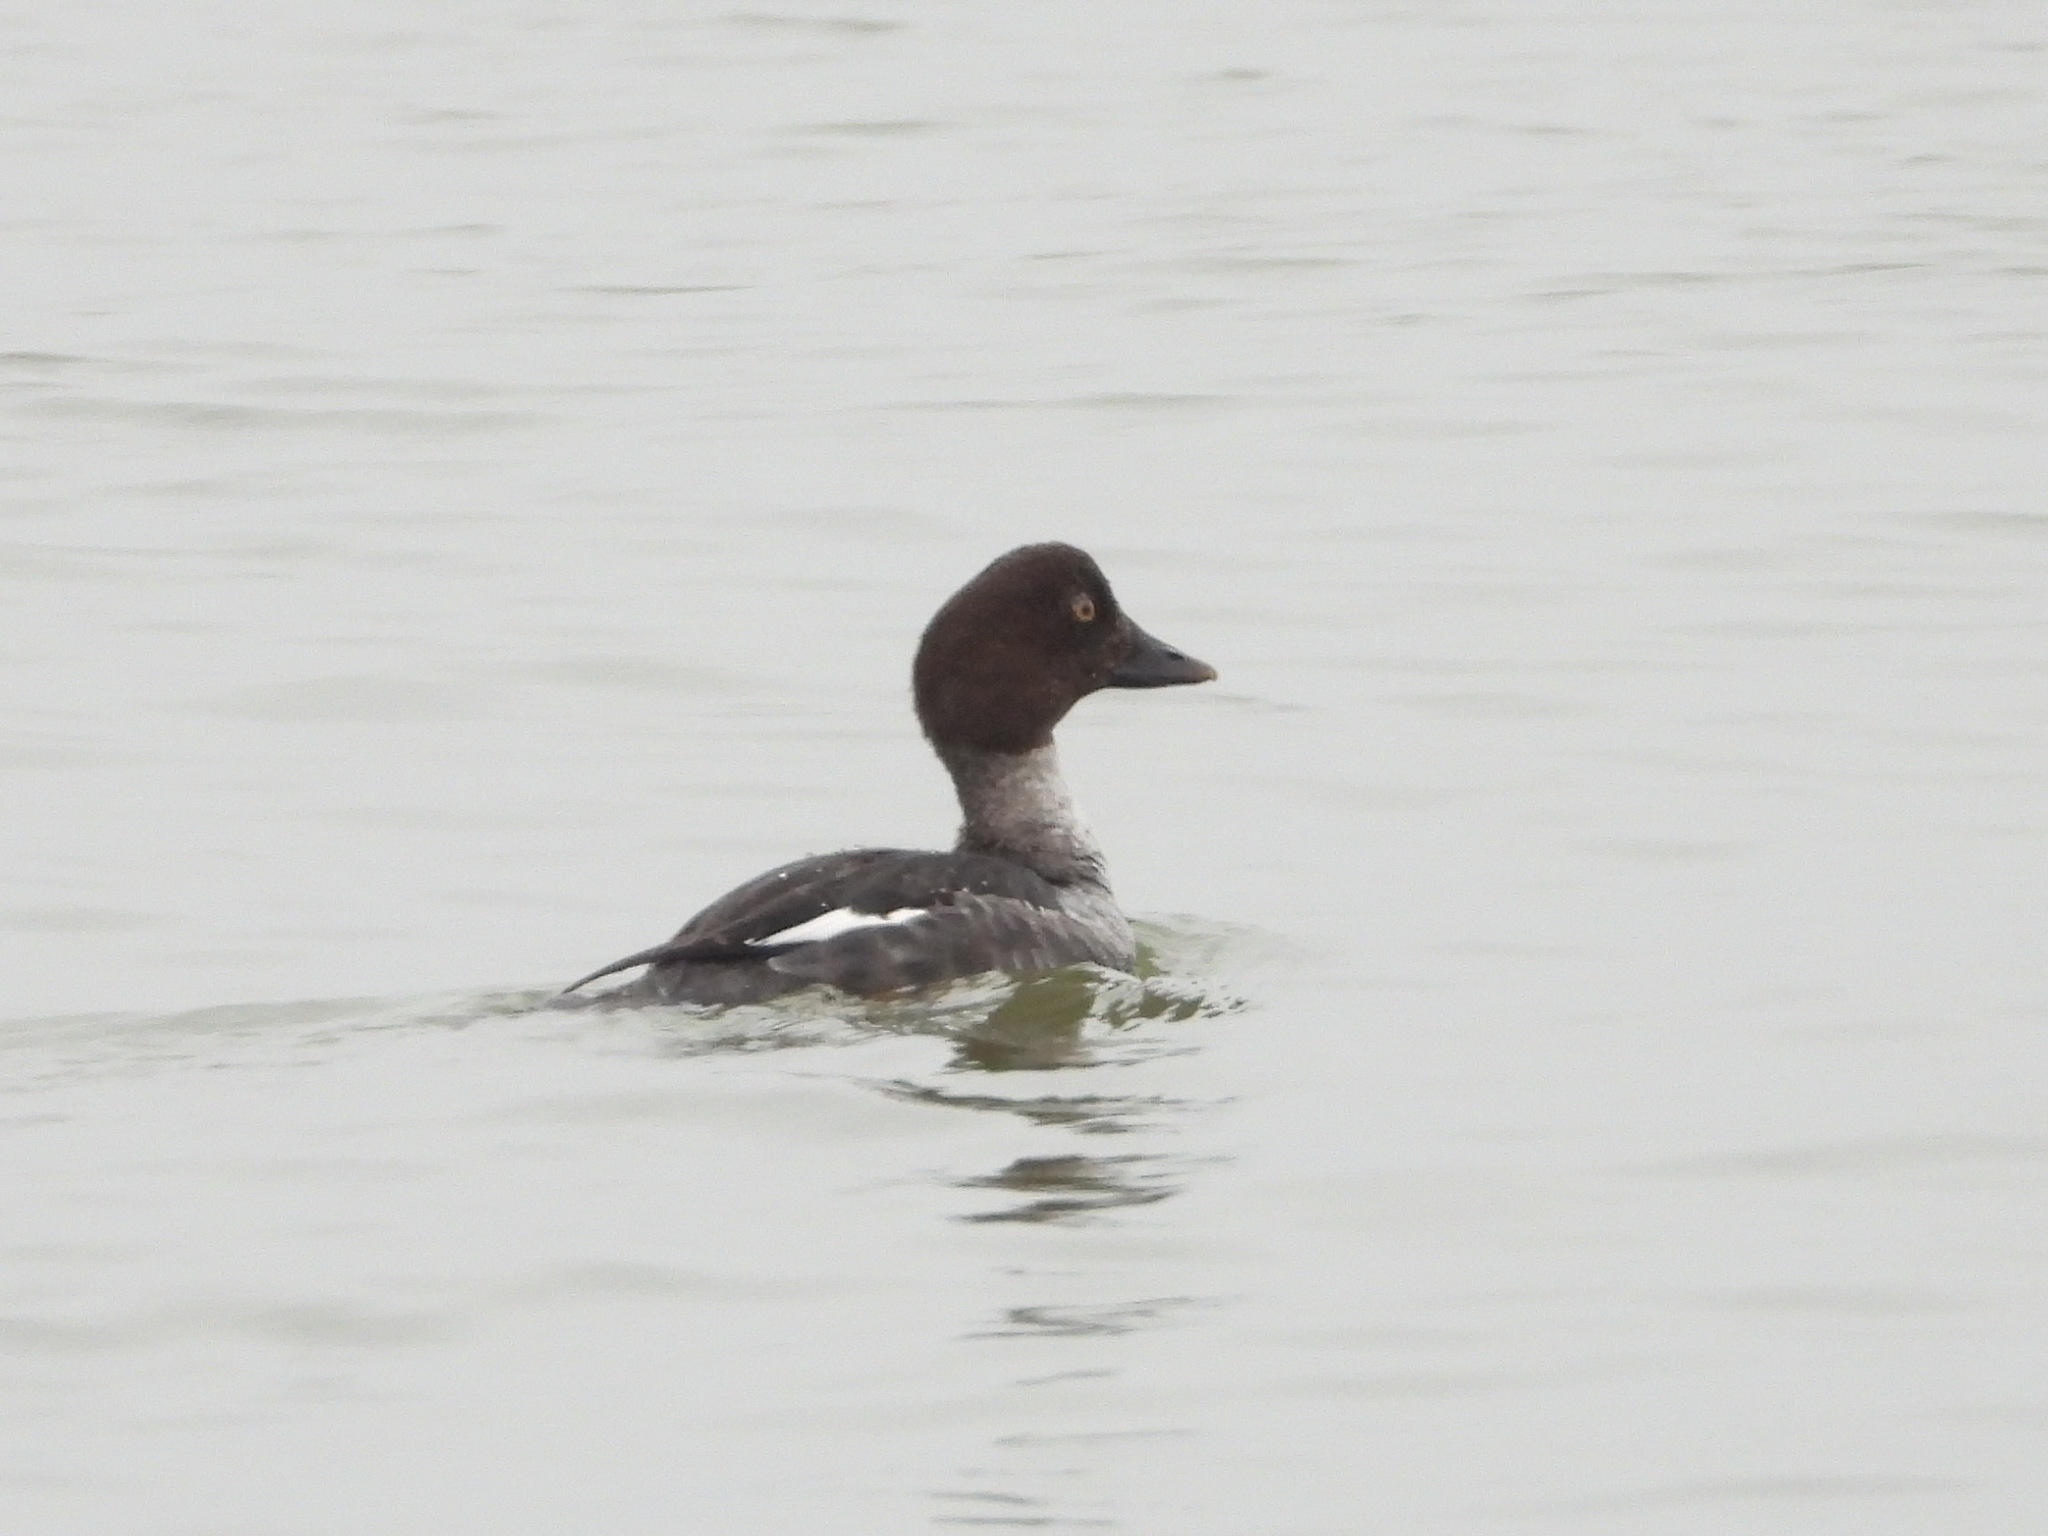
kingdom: Animalia
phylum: Chordata
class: Aves
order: Anseriformes
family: Anatidae
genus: Bucephala
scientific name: Bucephala clangula
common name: Common goldeneye
